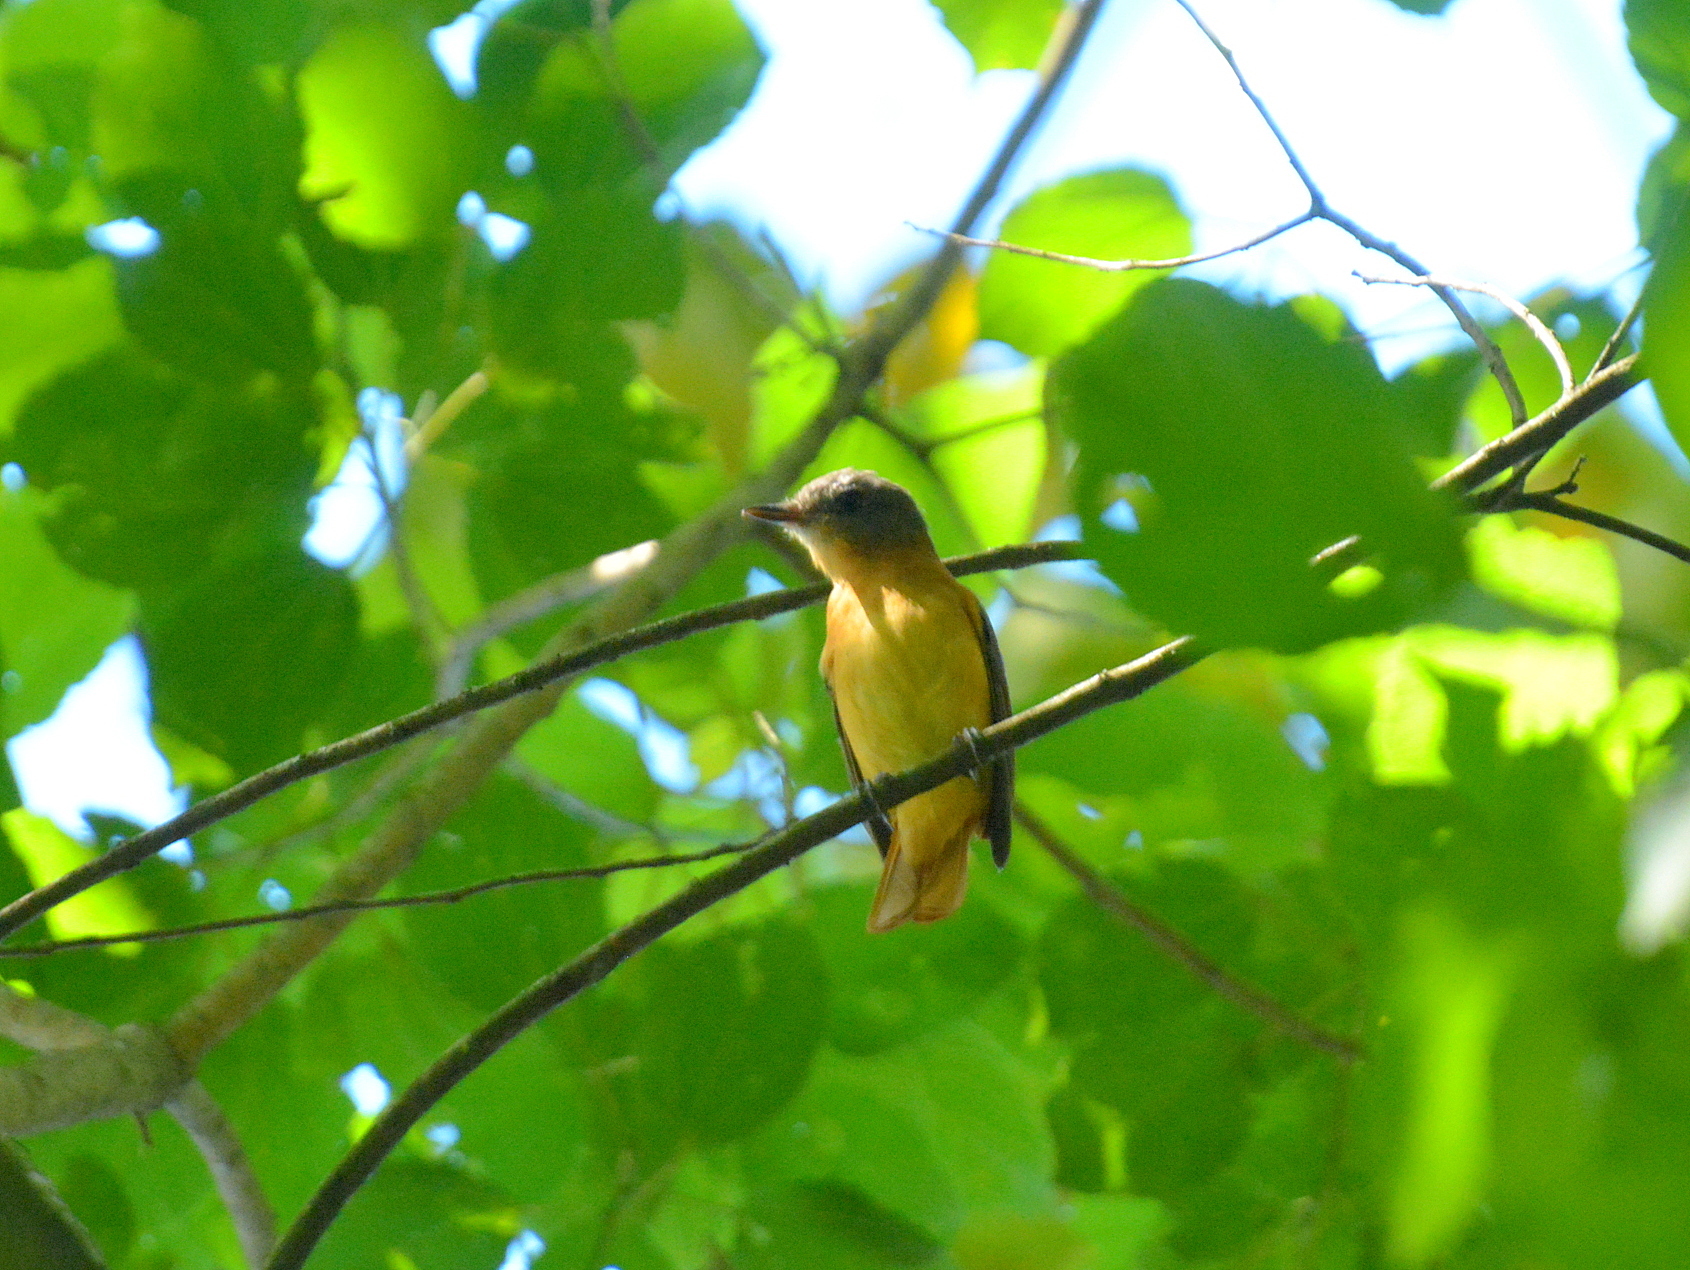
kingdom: Animalia
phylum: Chordata
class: Aves
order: Passeriformes
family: Tyrannidae
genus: Attila
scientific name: Attila phoenicurus
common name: Rufous-tailed attila
